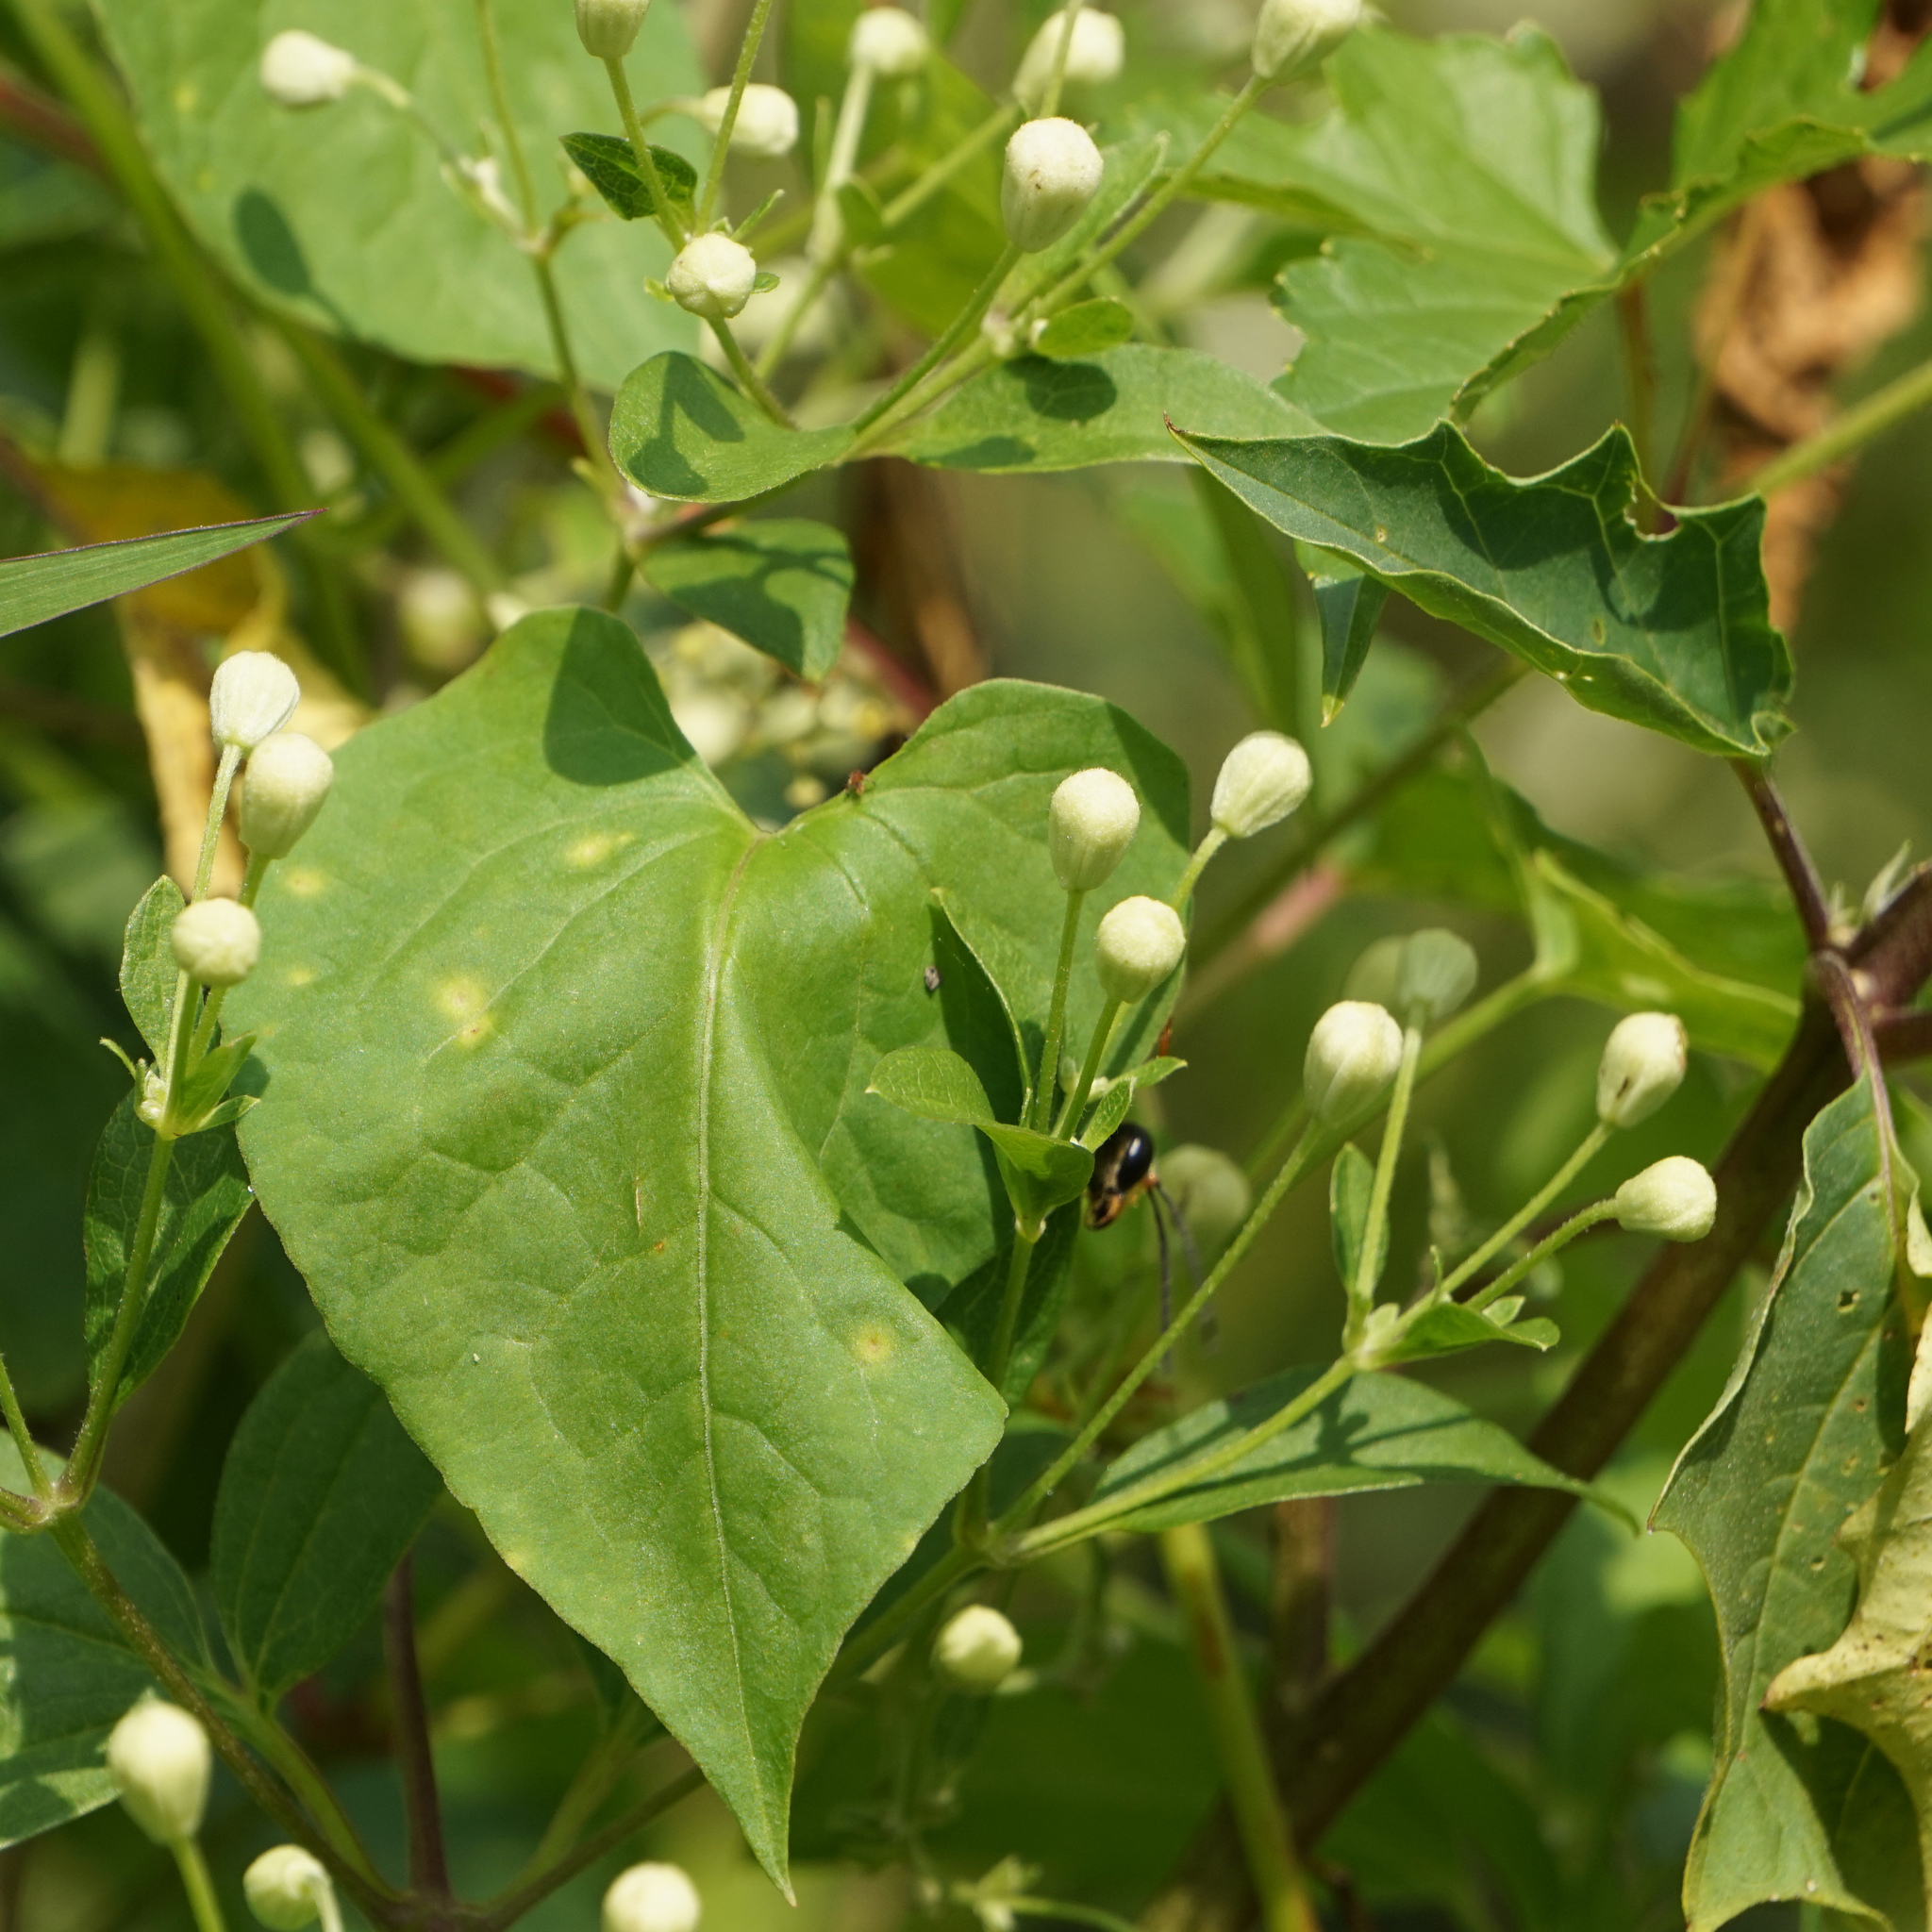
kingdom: Animalia
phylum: Arthropoda
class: Insecta
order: Hymenoptera
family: Sphecidae
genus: Sphex
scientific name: Sphex ichneumoneus
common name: Great golden digger wasp
